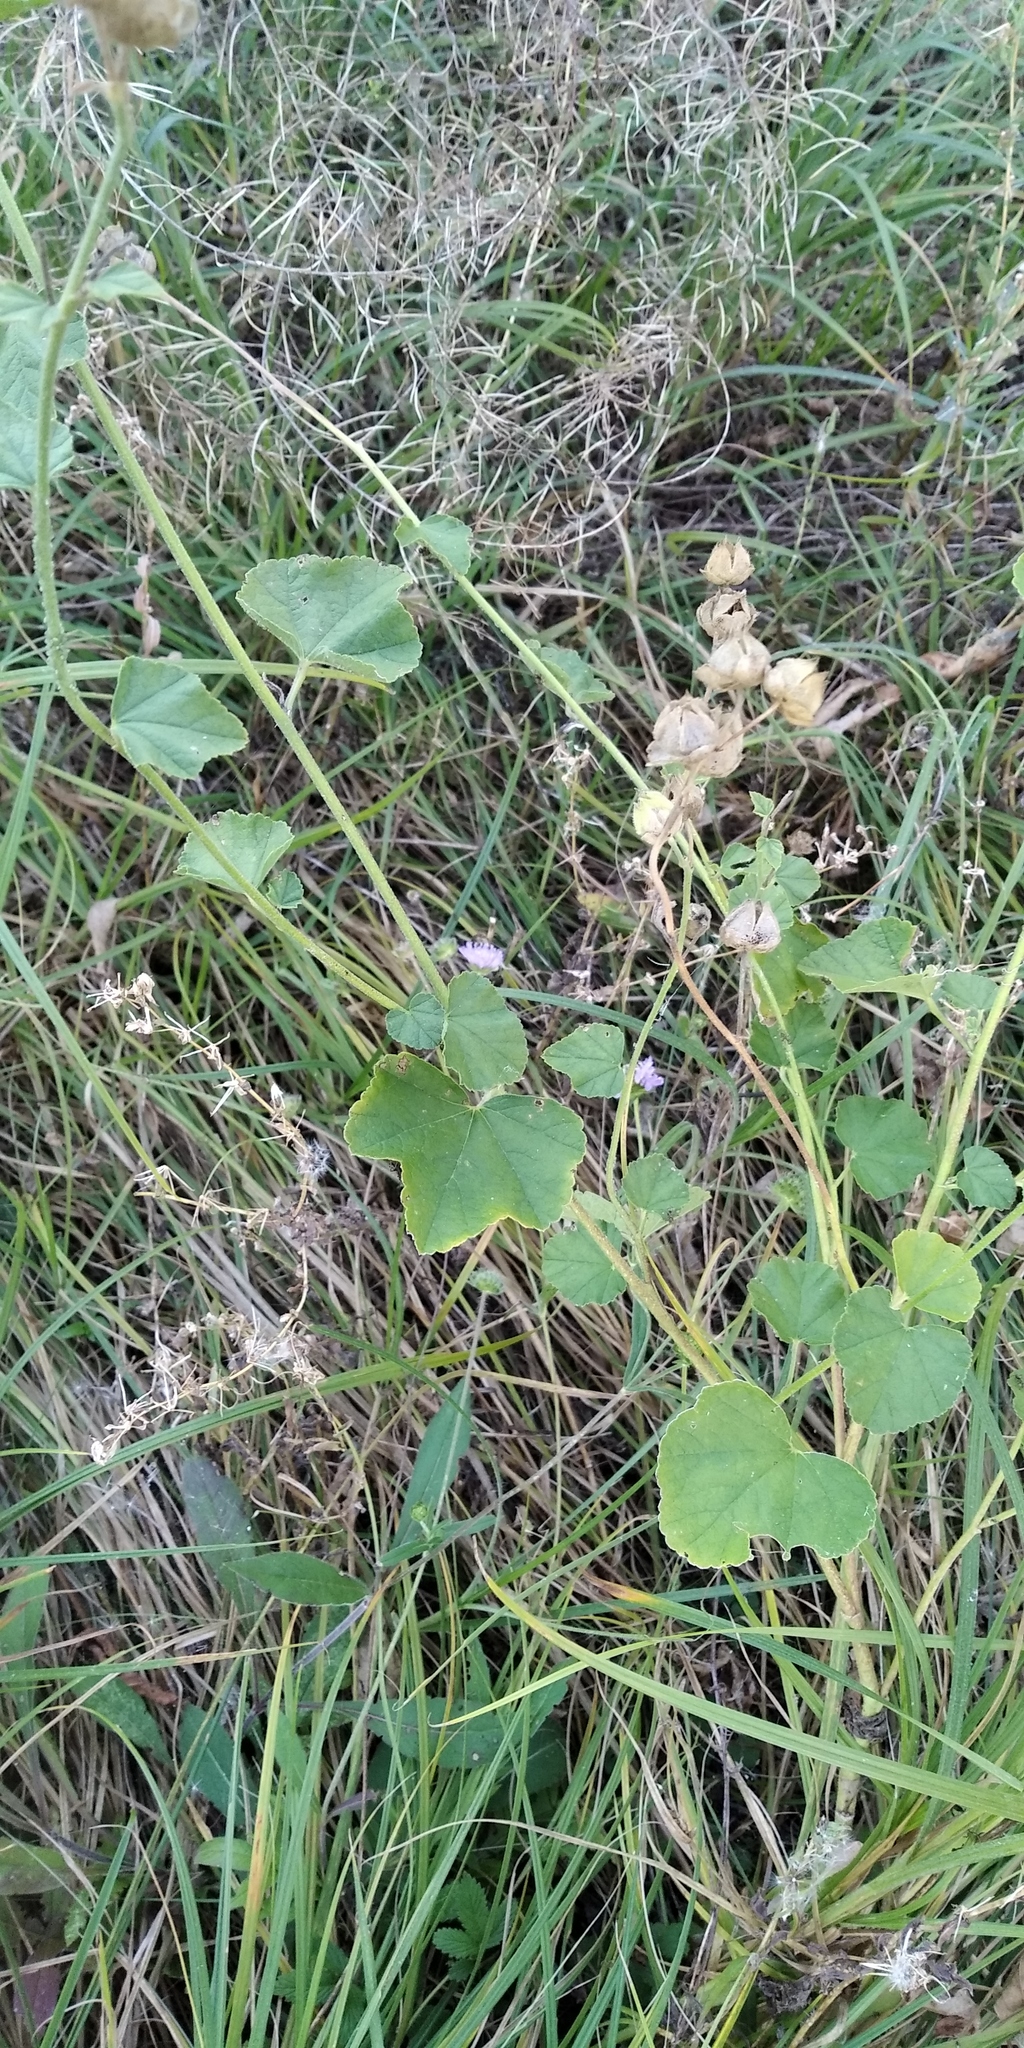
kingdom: Plantae
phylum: Tracheophyta
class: Magnoliopsida
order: Malvales
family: Malvaceae
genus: Malva
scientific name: Malva thuringiaca
